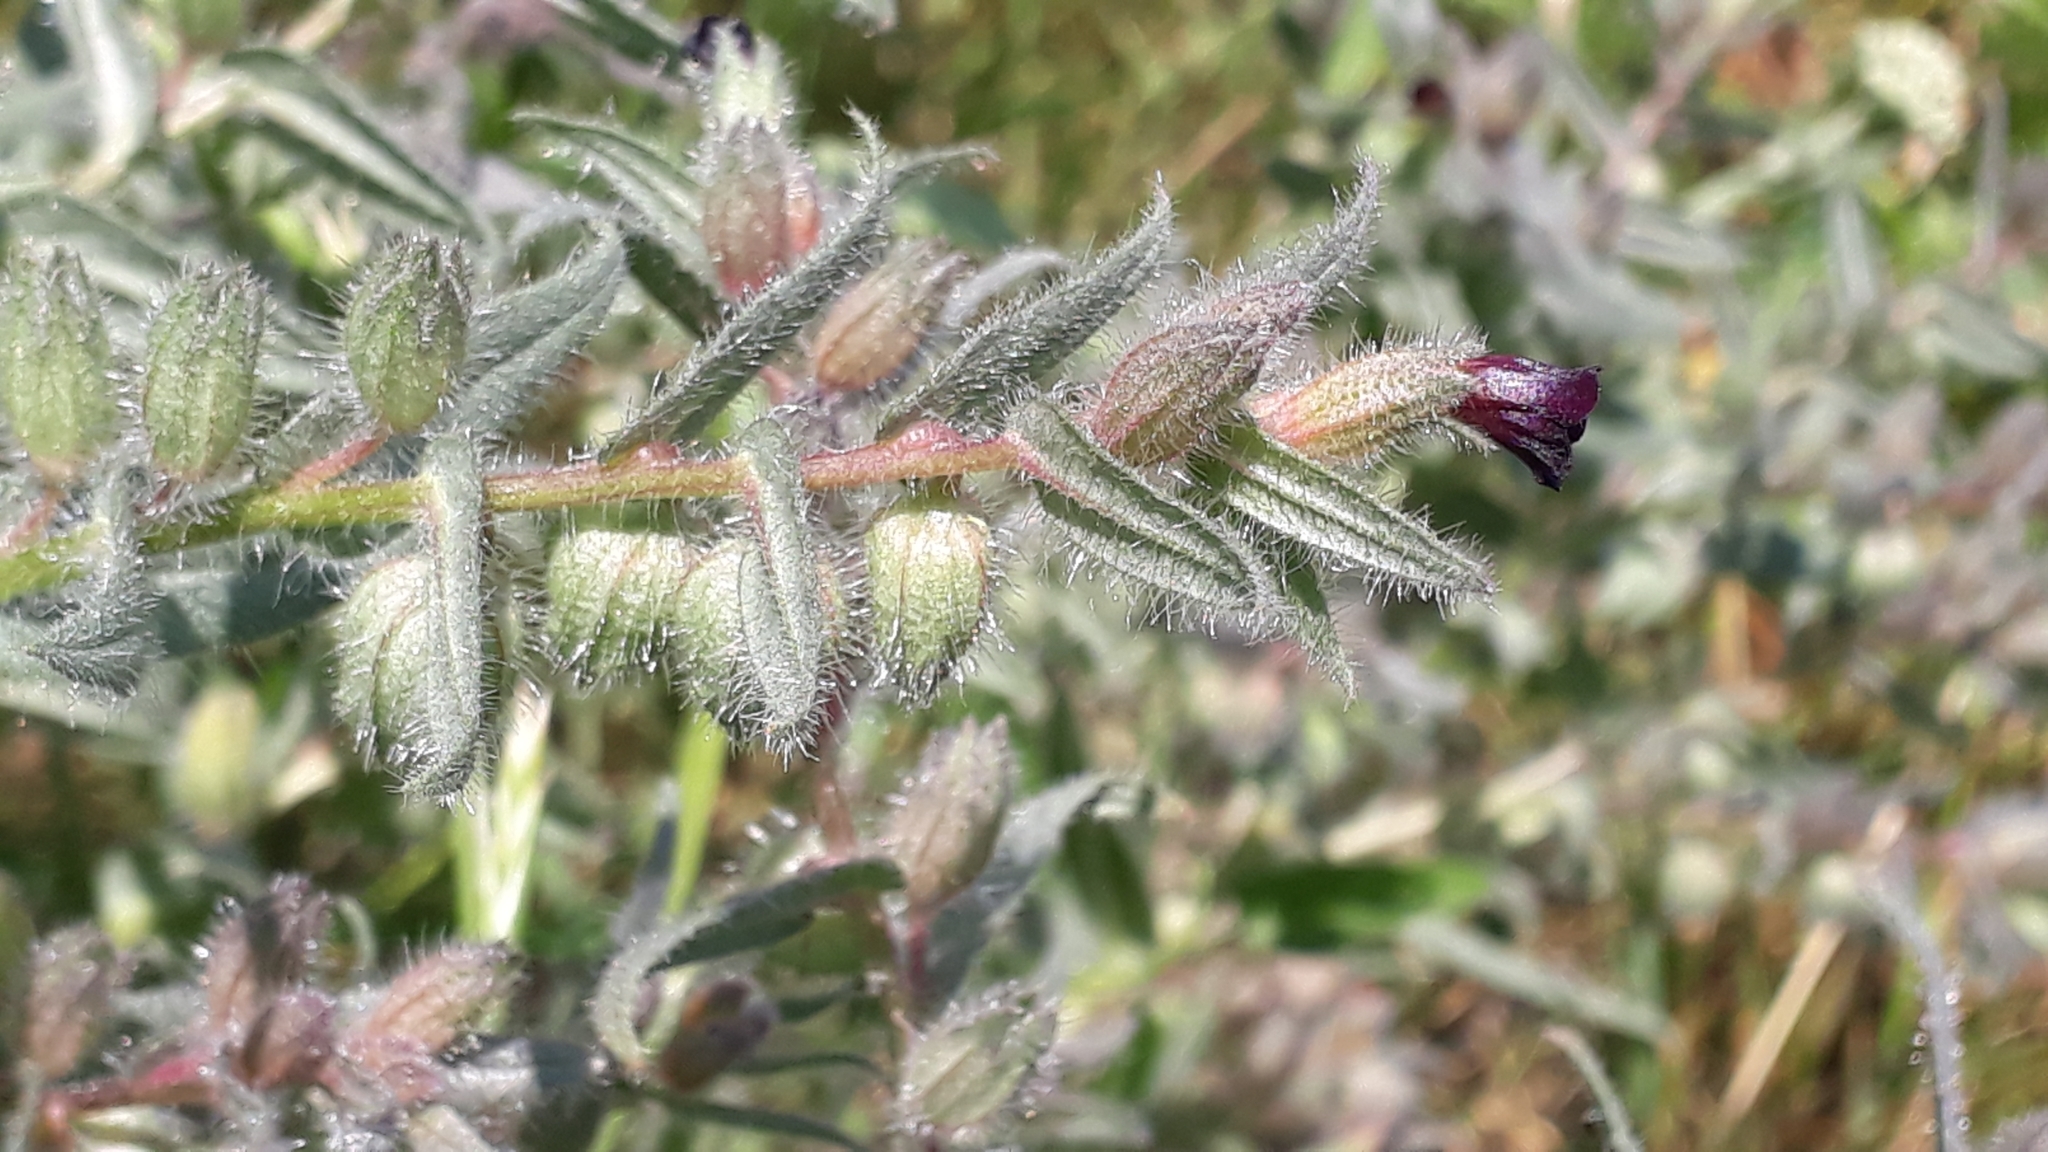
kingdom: Plantae
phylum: Tracheophyta
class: Magnoliopsida
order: Boraginales
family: Boraginaceae
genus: Nonea
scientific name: Nonea pulla
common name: Brown nonea
